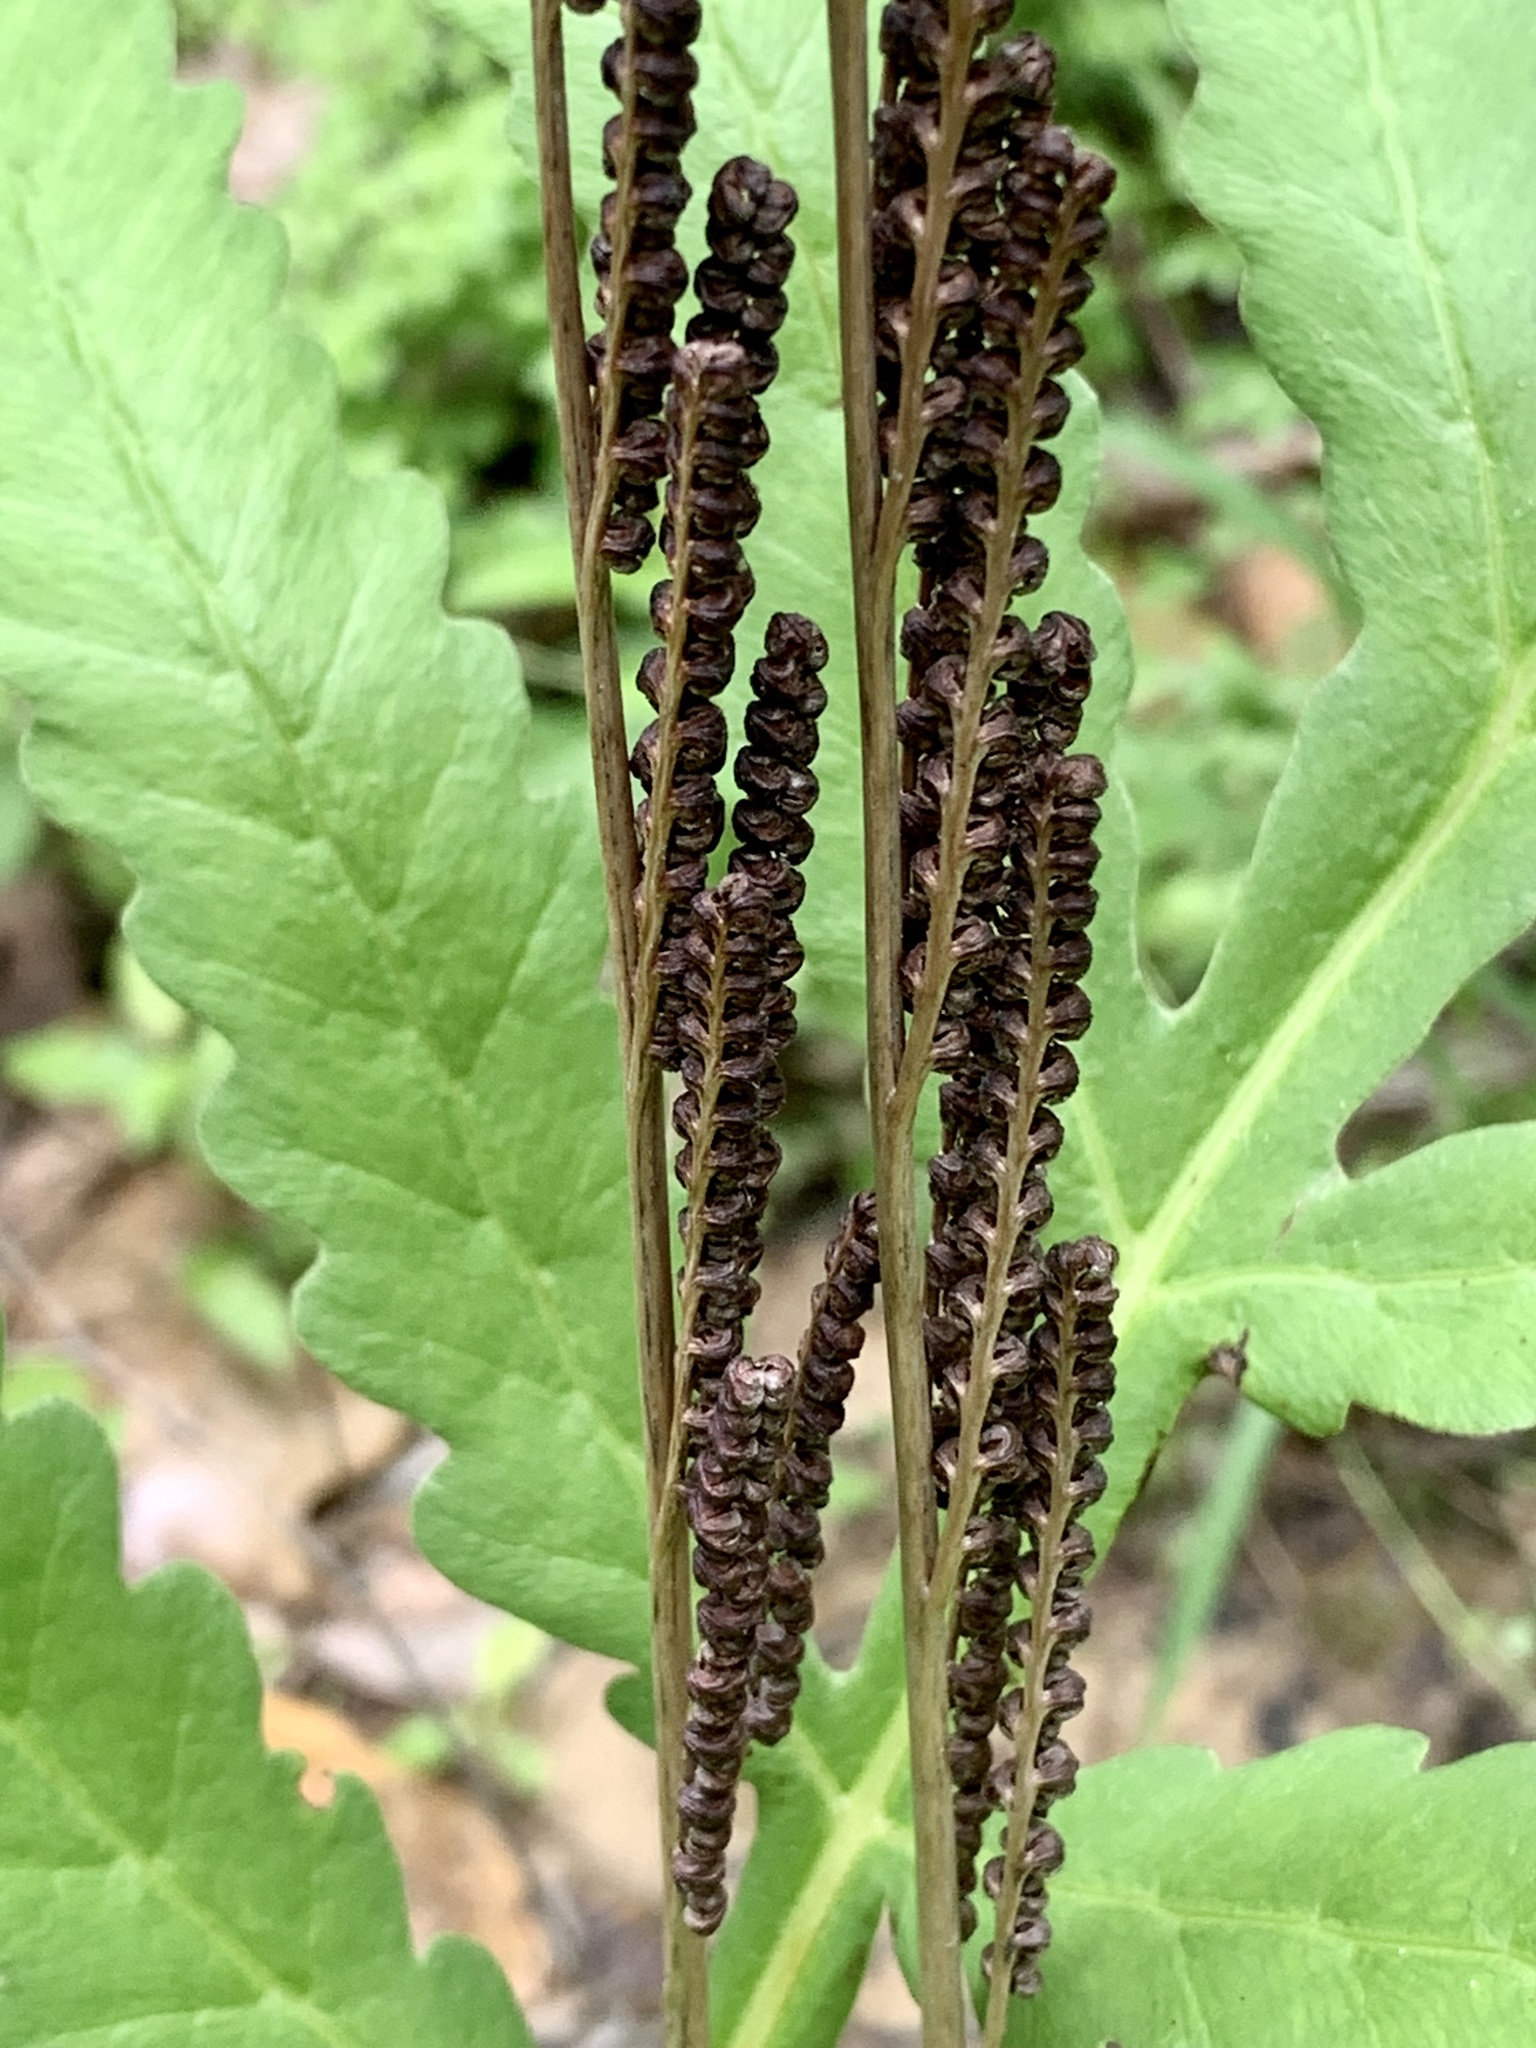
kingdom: Plantae
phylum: Tracheophyta
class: Polypodiopsida
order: Polypodiales
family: Onocleaceae
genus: Onoclea
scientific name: Onoclea sensibilis
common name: Sensitive fern
